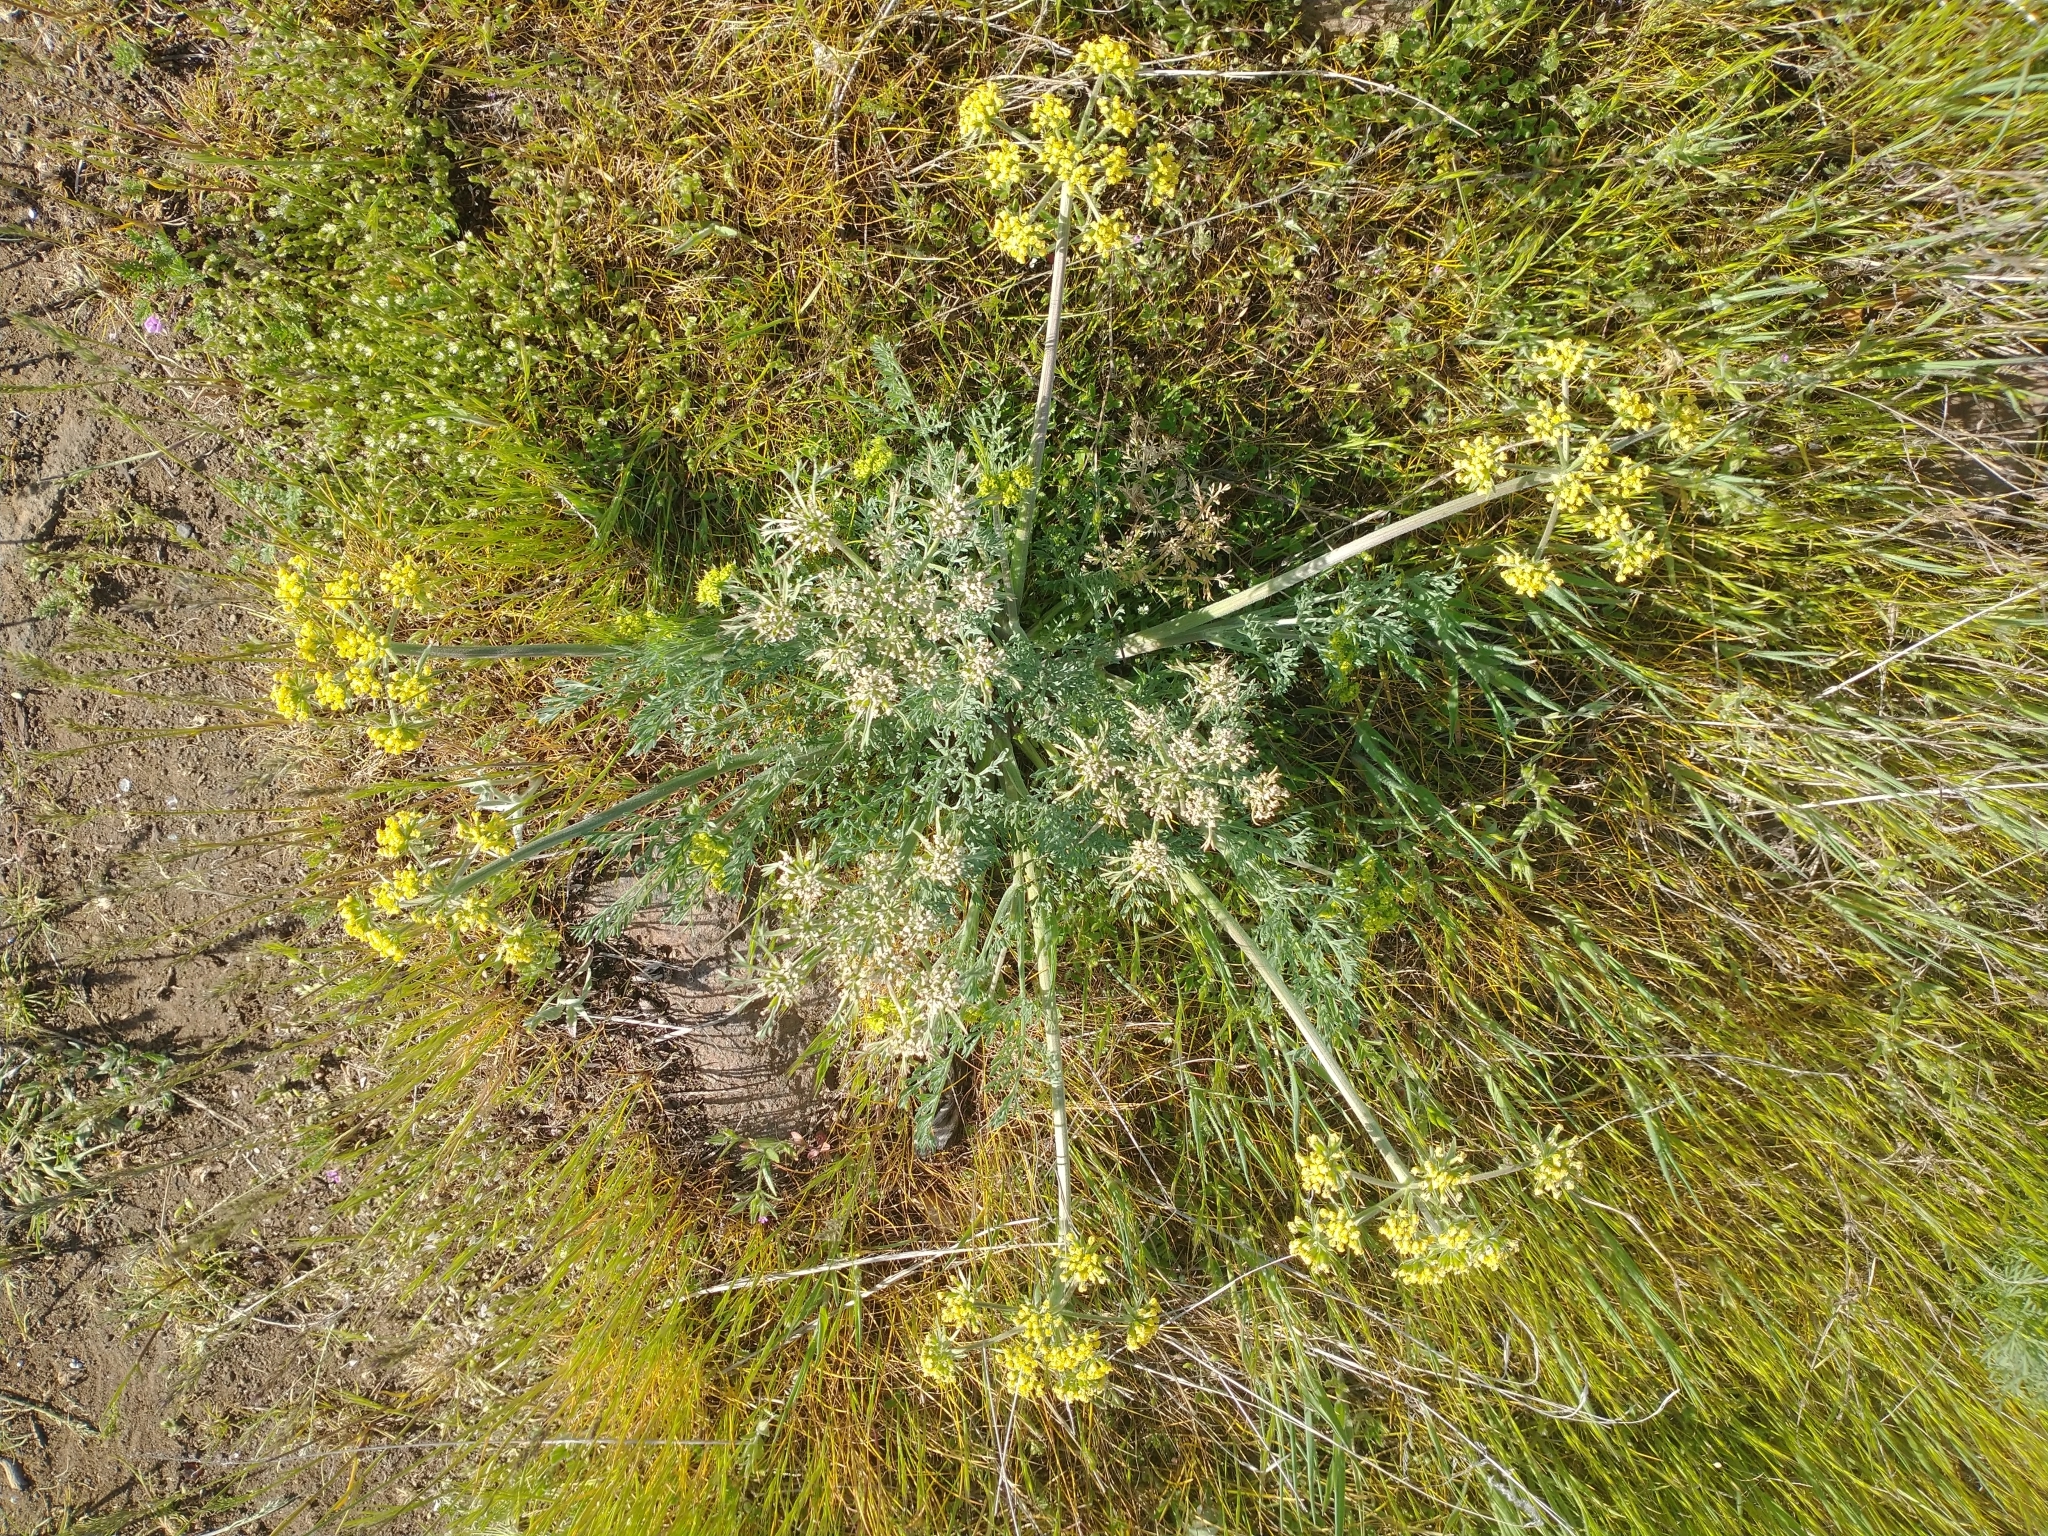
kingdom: Plantae
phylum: Tracheophyta
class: Magnoliopsida
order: Apiales
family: Apiaceae
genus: Lomatium
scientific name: Lomatium macrocarpum
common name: Big-seed biscuitroot
